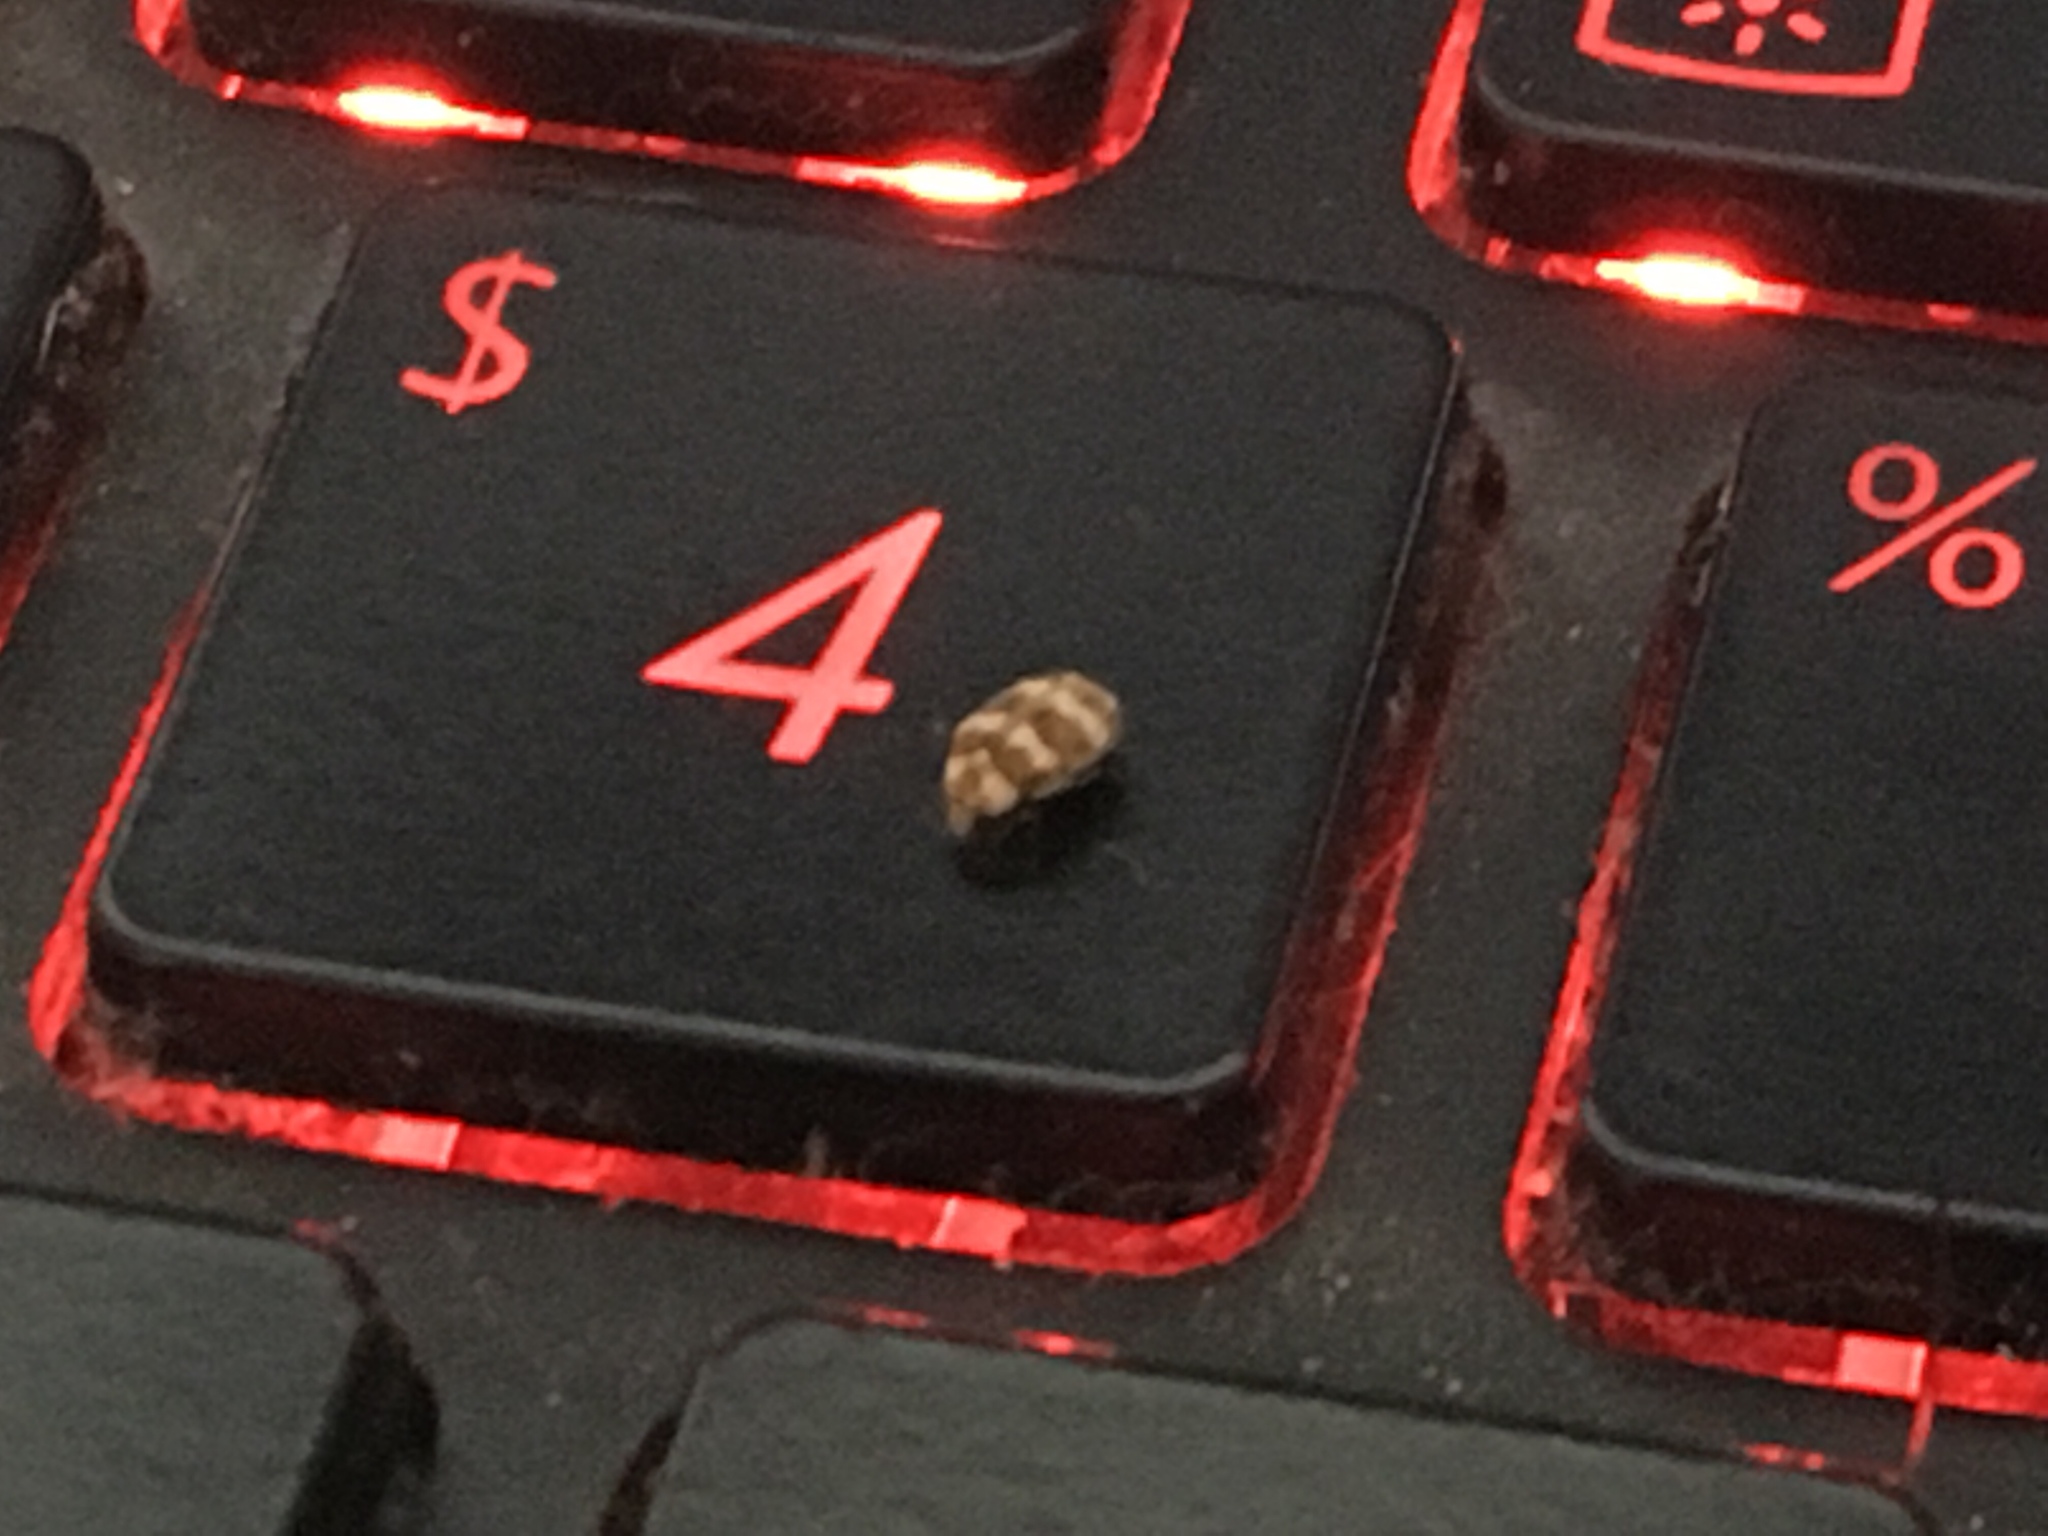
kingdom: Animalia
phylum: Arthropoda
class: Insecta
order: Coleoptera
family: Dermestidae
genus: Anthrenus
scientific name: Anthrenus coloratus
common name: Auger beetle
